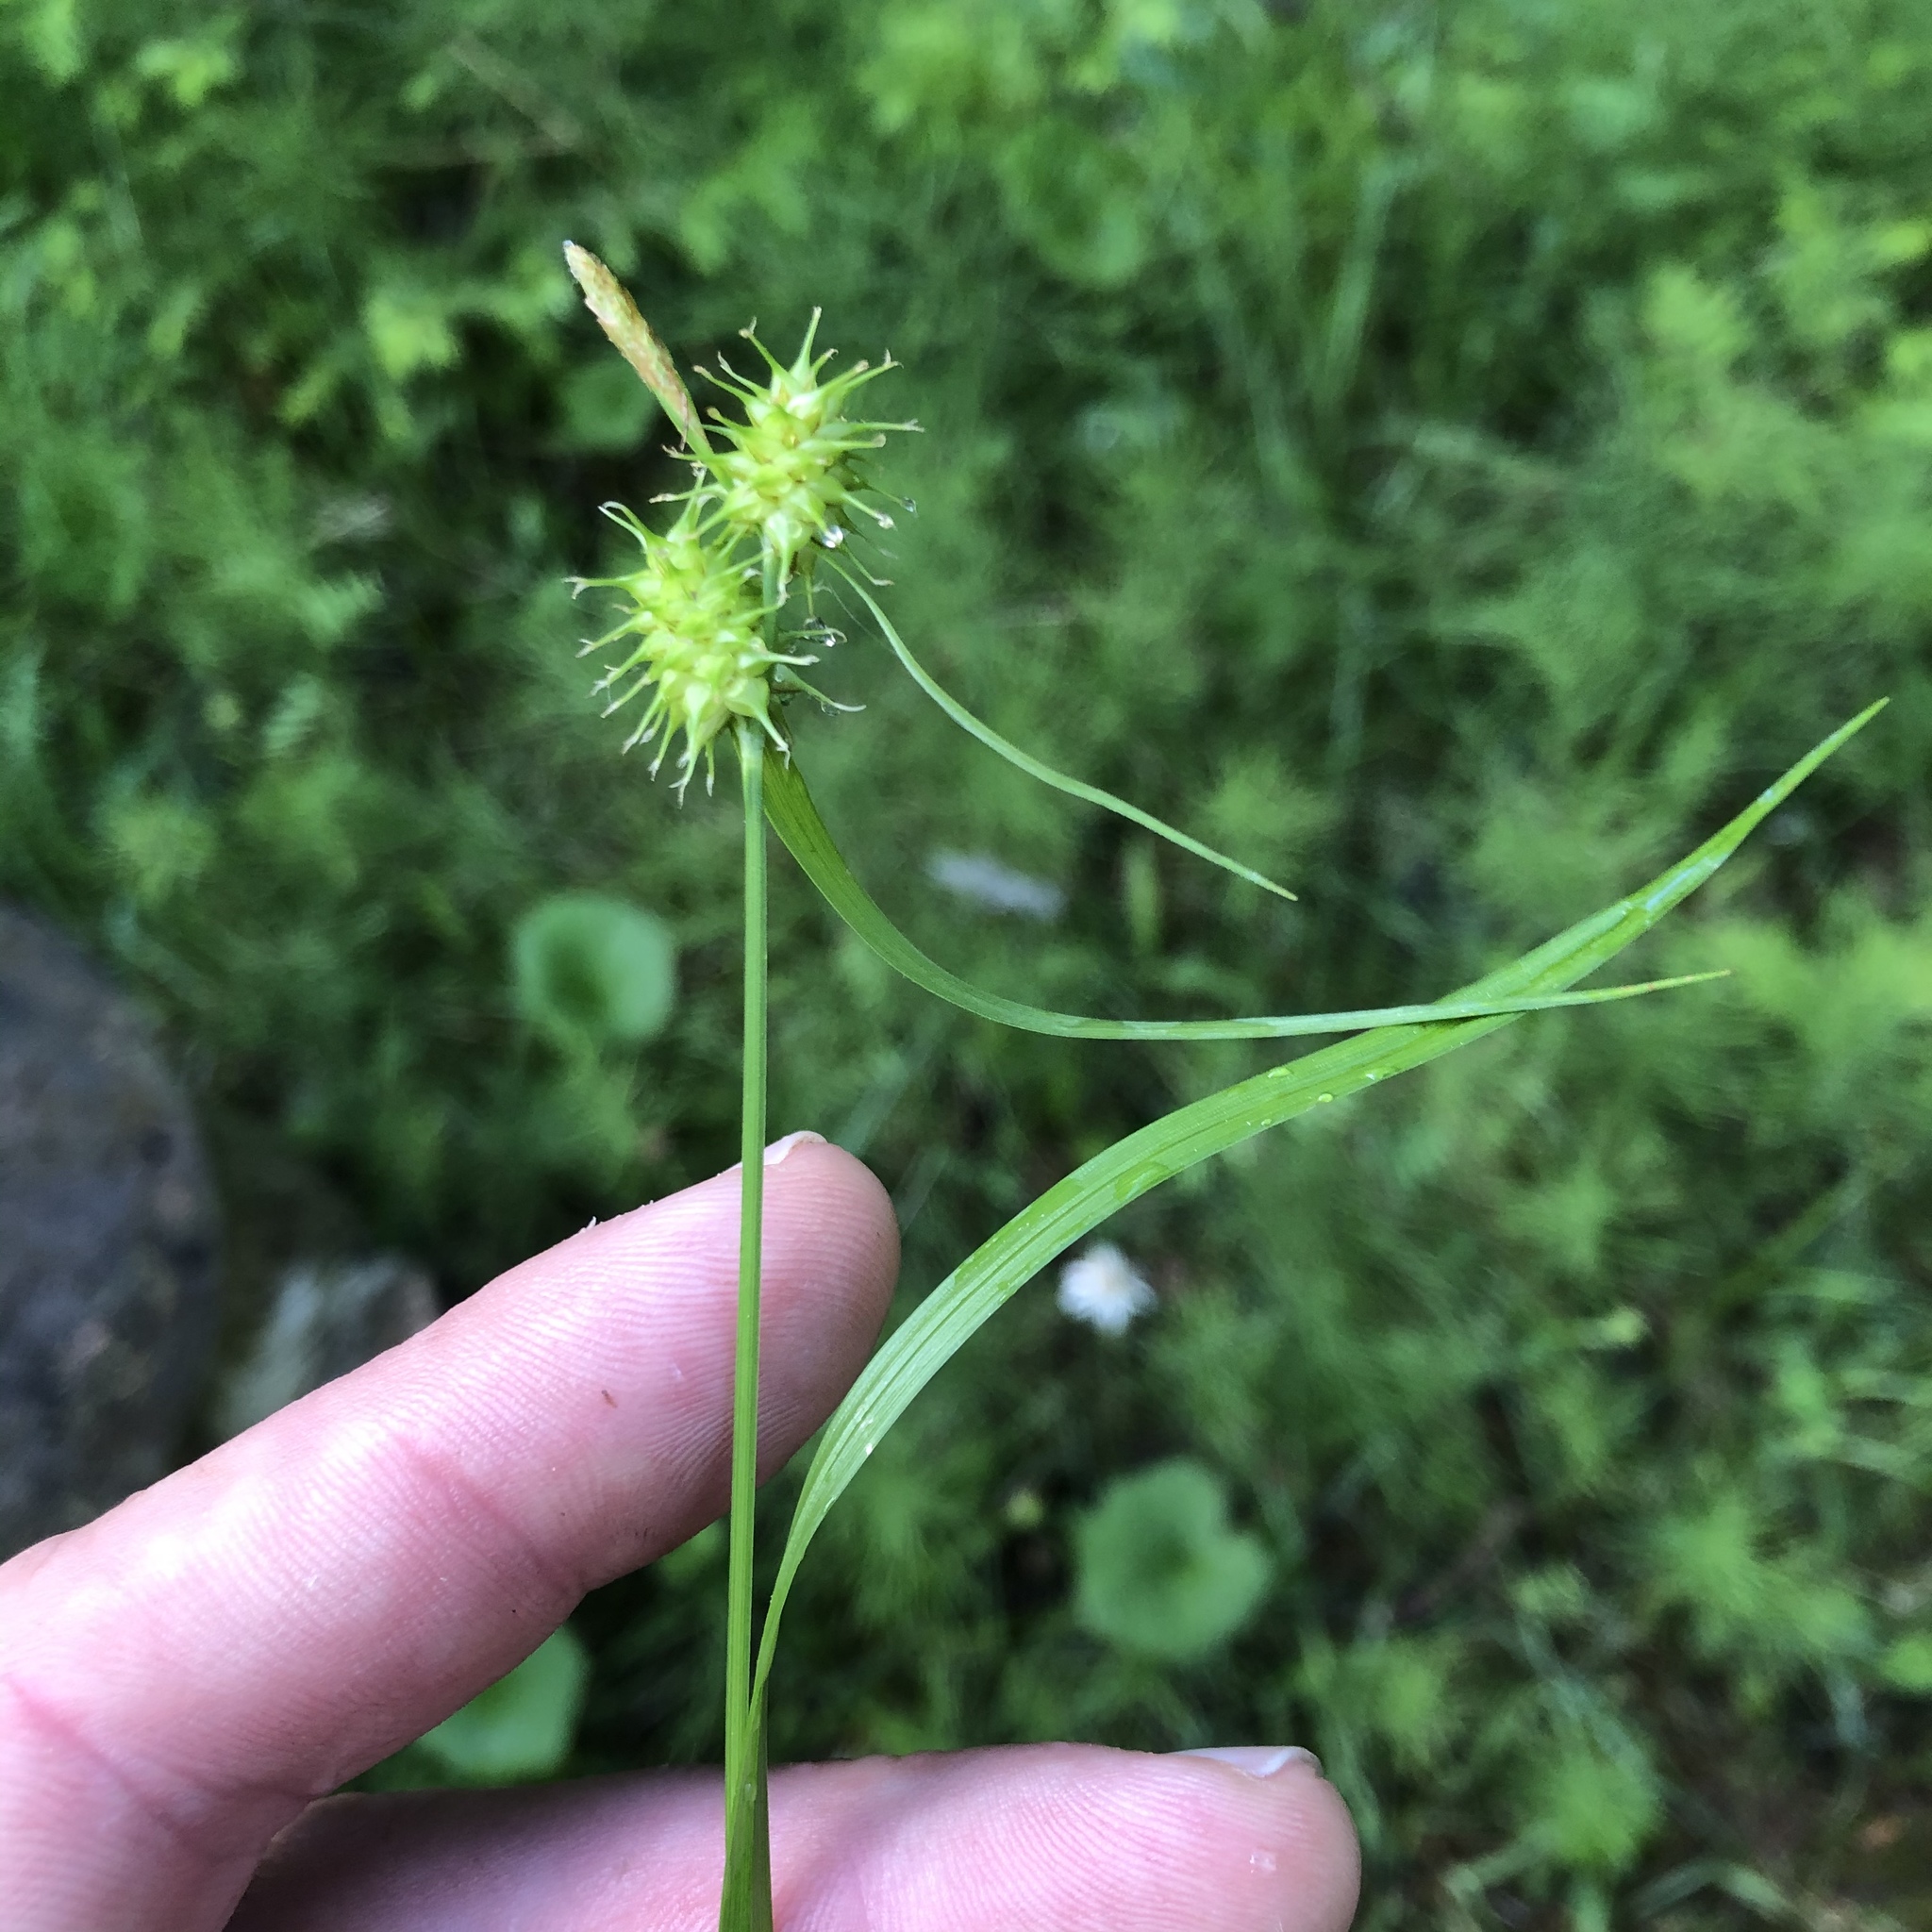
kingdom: Plantae
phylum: Tracheophyta
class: Liliopsida
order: Poales
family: Cyperaceae
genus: Carex
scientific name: Carex flava
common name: Large yellow-sedge
